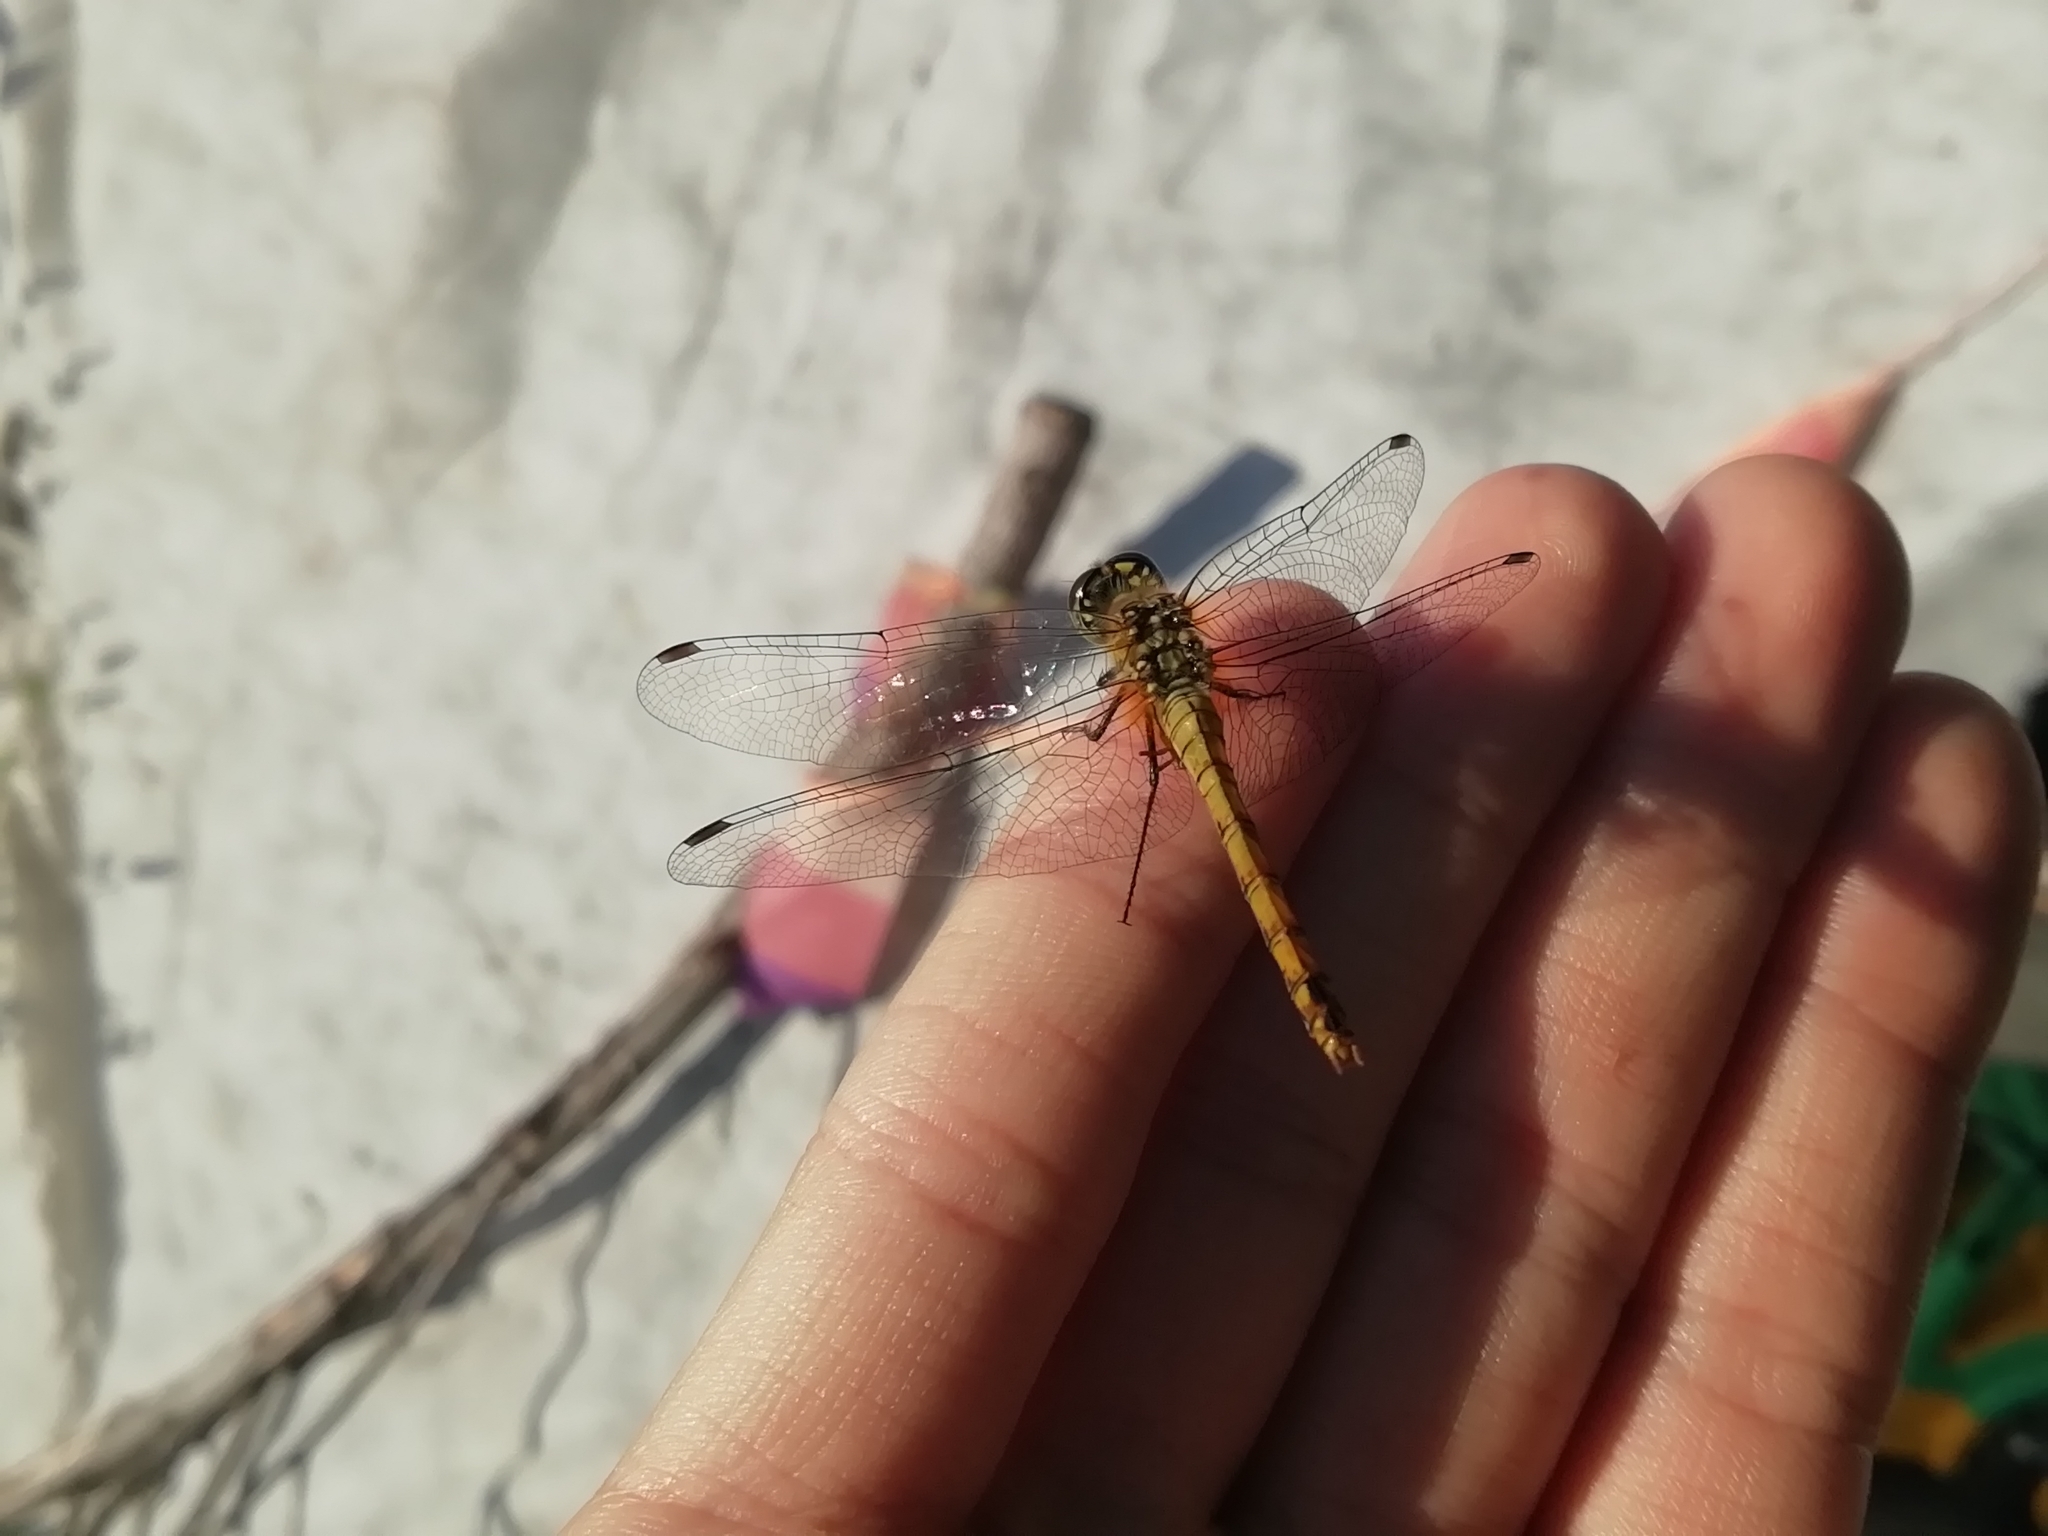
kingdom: Animalia
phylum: Arthropoda
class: Insecta
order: Odonata
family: Libellulidae
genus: Sympetrum
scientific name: Sympetrum sanguineum
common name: Ruddy darter
